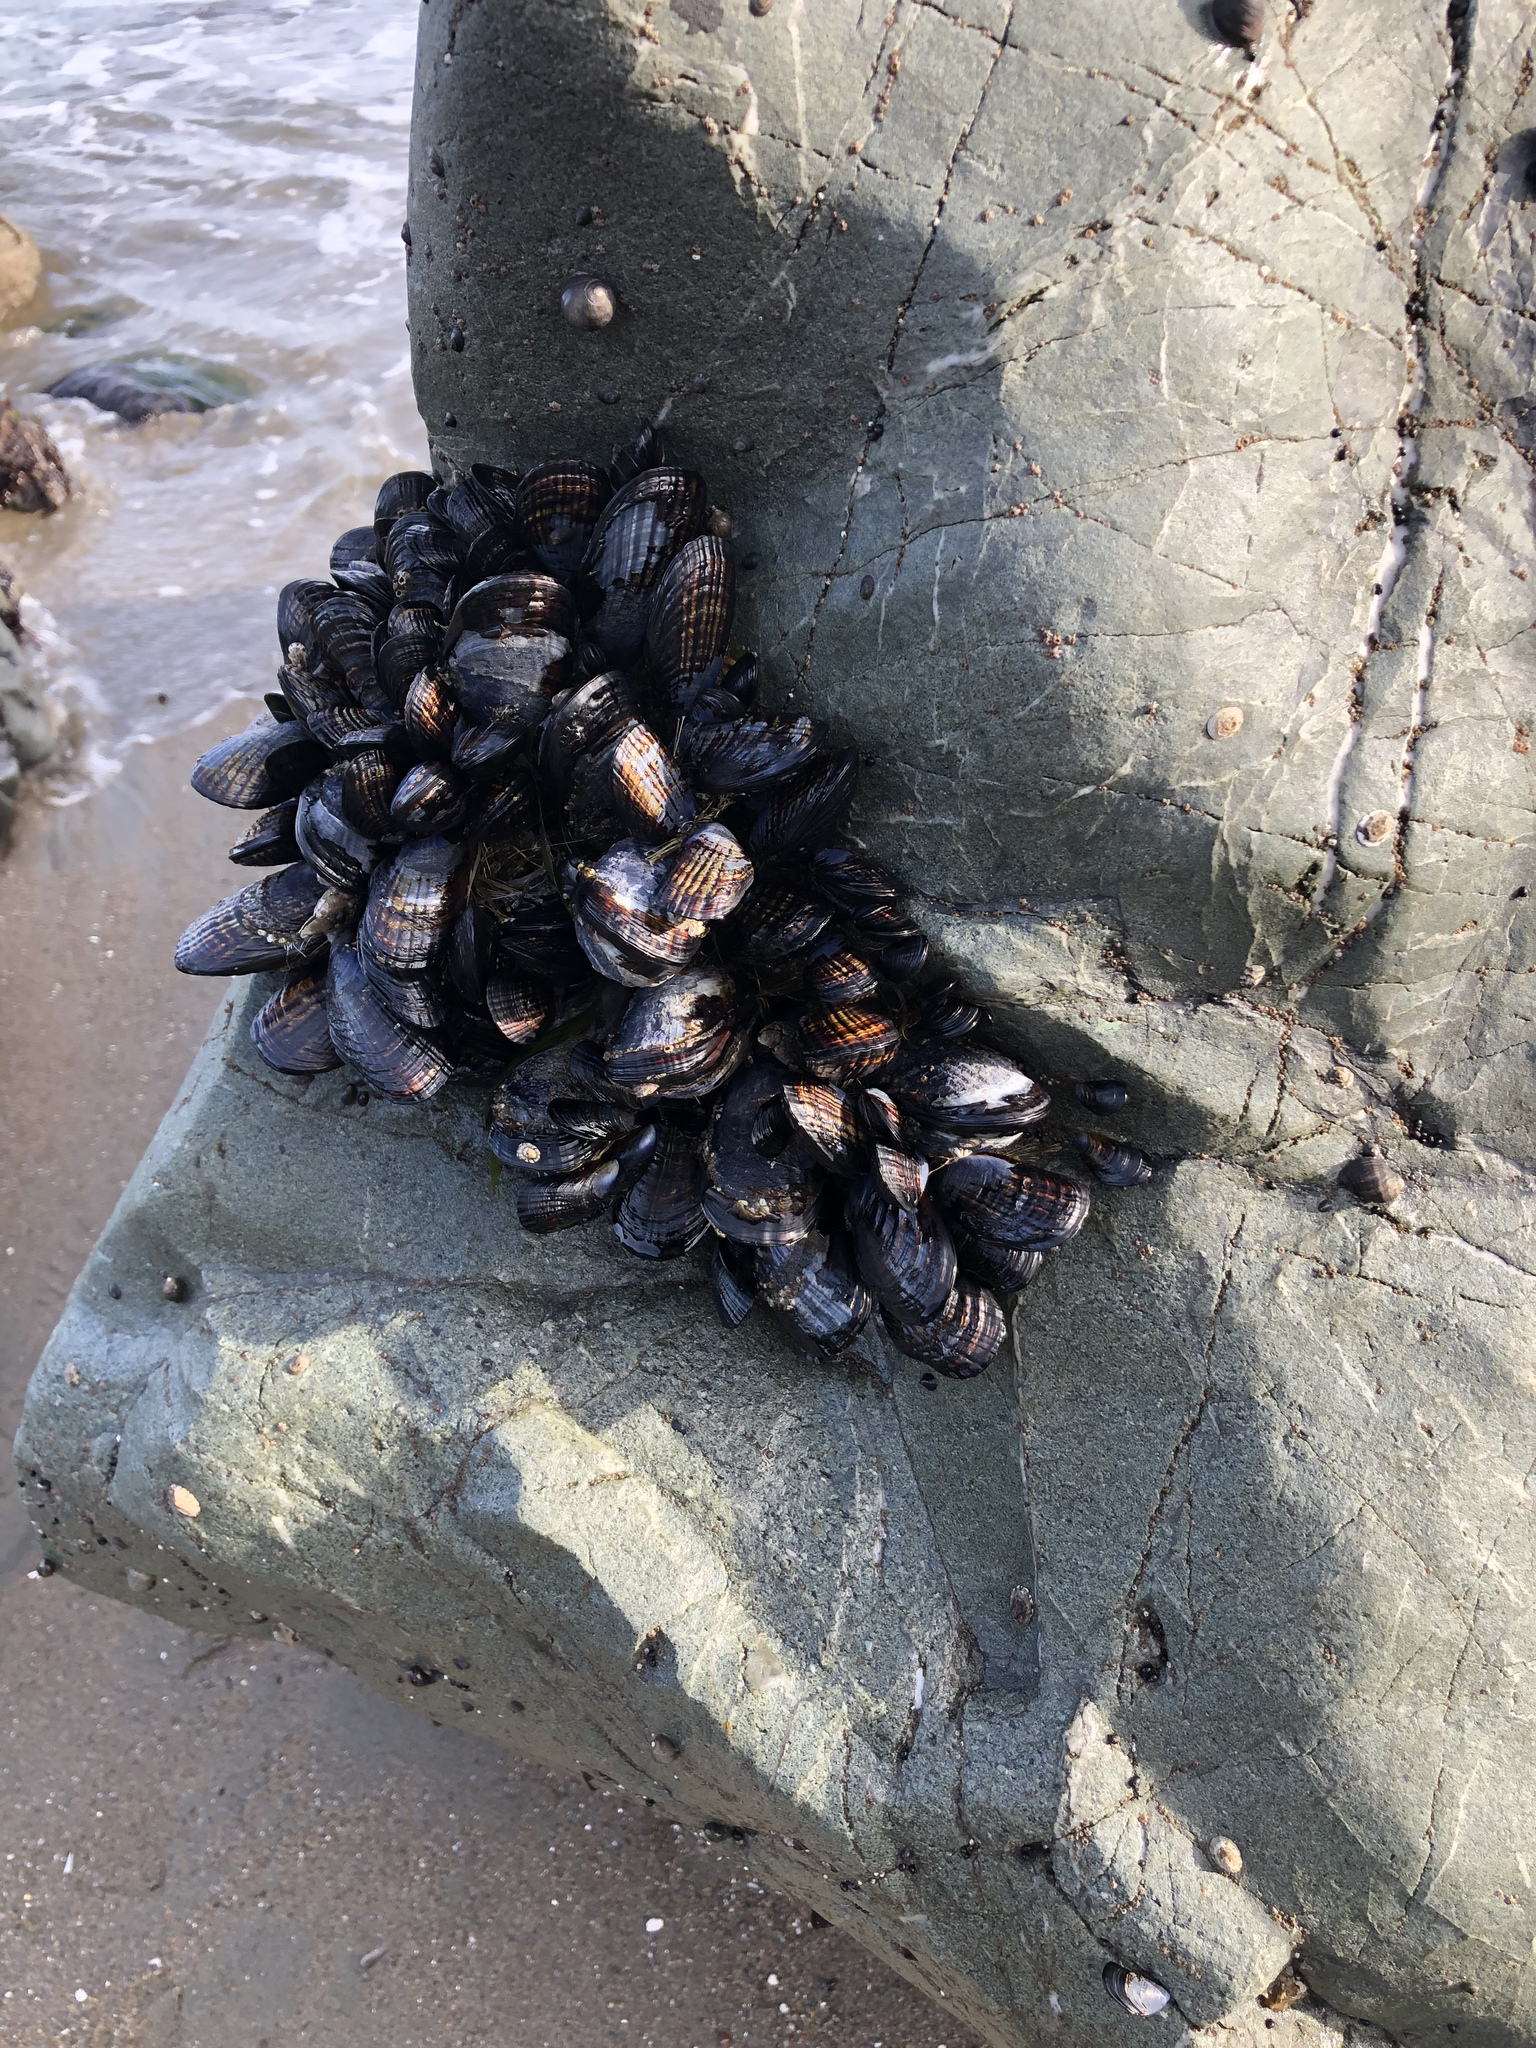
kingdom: Animalia
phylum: Mollusca
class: Bivalvia
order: Mytilida
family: Mytilidae
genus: Mytilus
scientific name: Mytilus californianus
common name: California mussel
